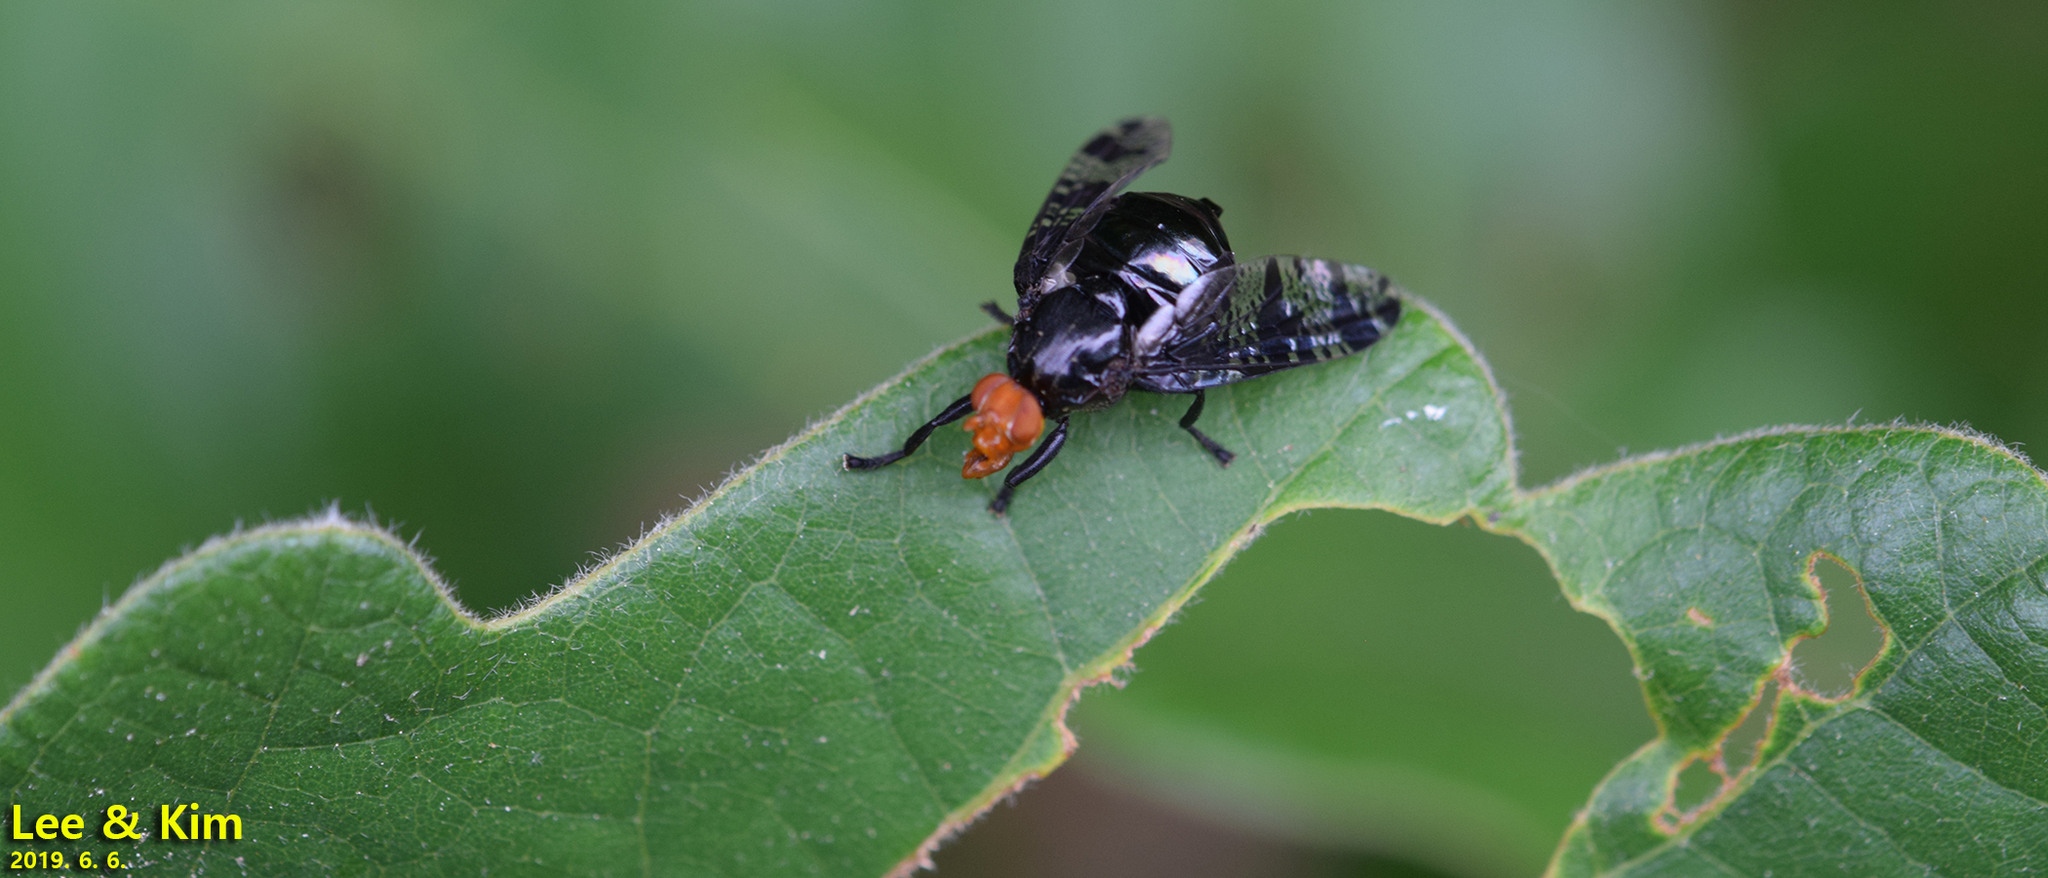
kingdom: Animalia
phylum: Arthropoda
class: Insecta
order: Diptera
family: Platystomatidae
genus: Prosthiochaeta
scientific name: Prosthiochaeta bifasciata
